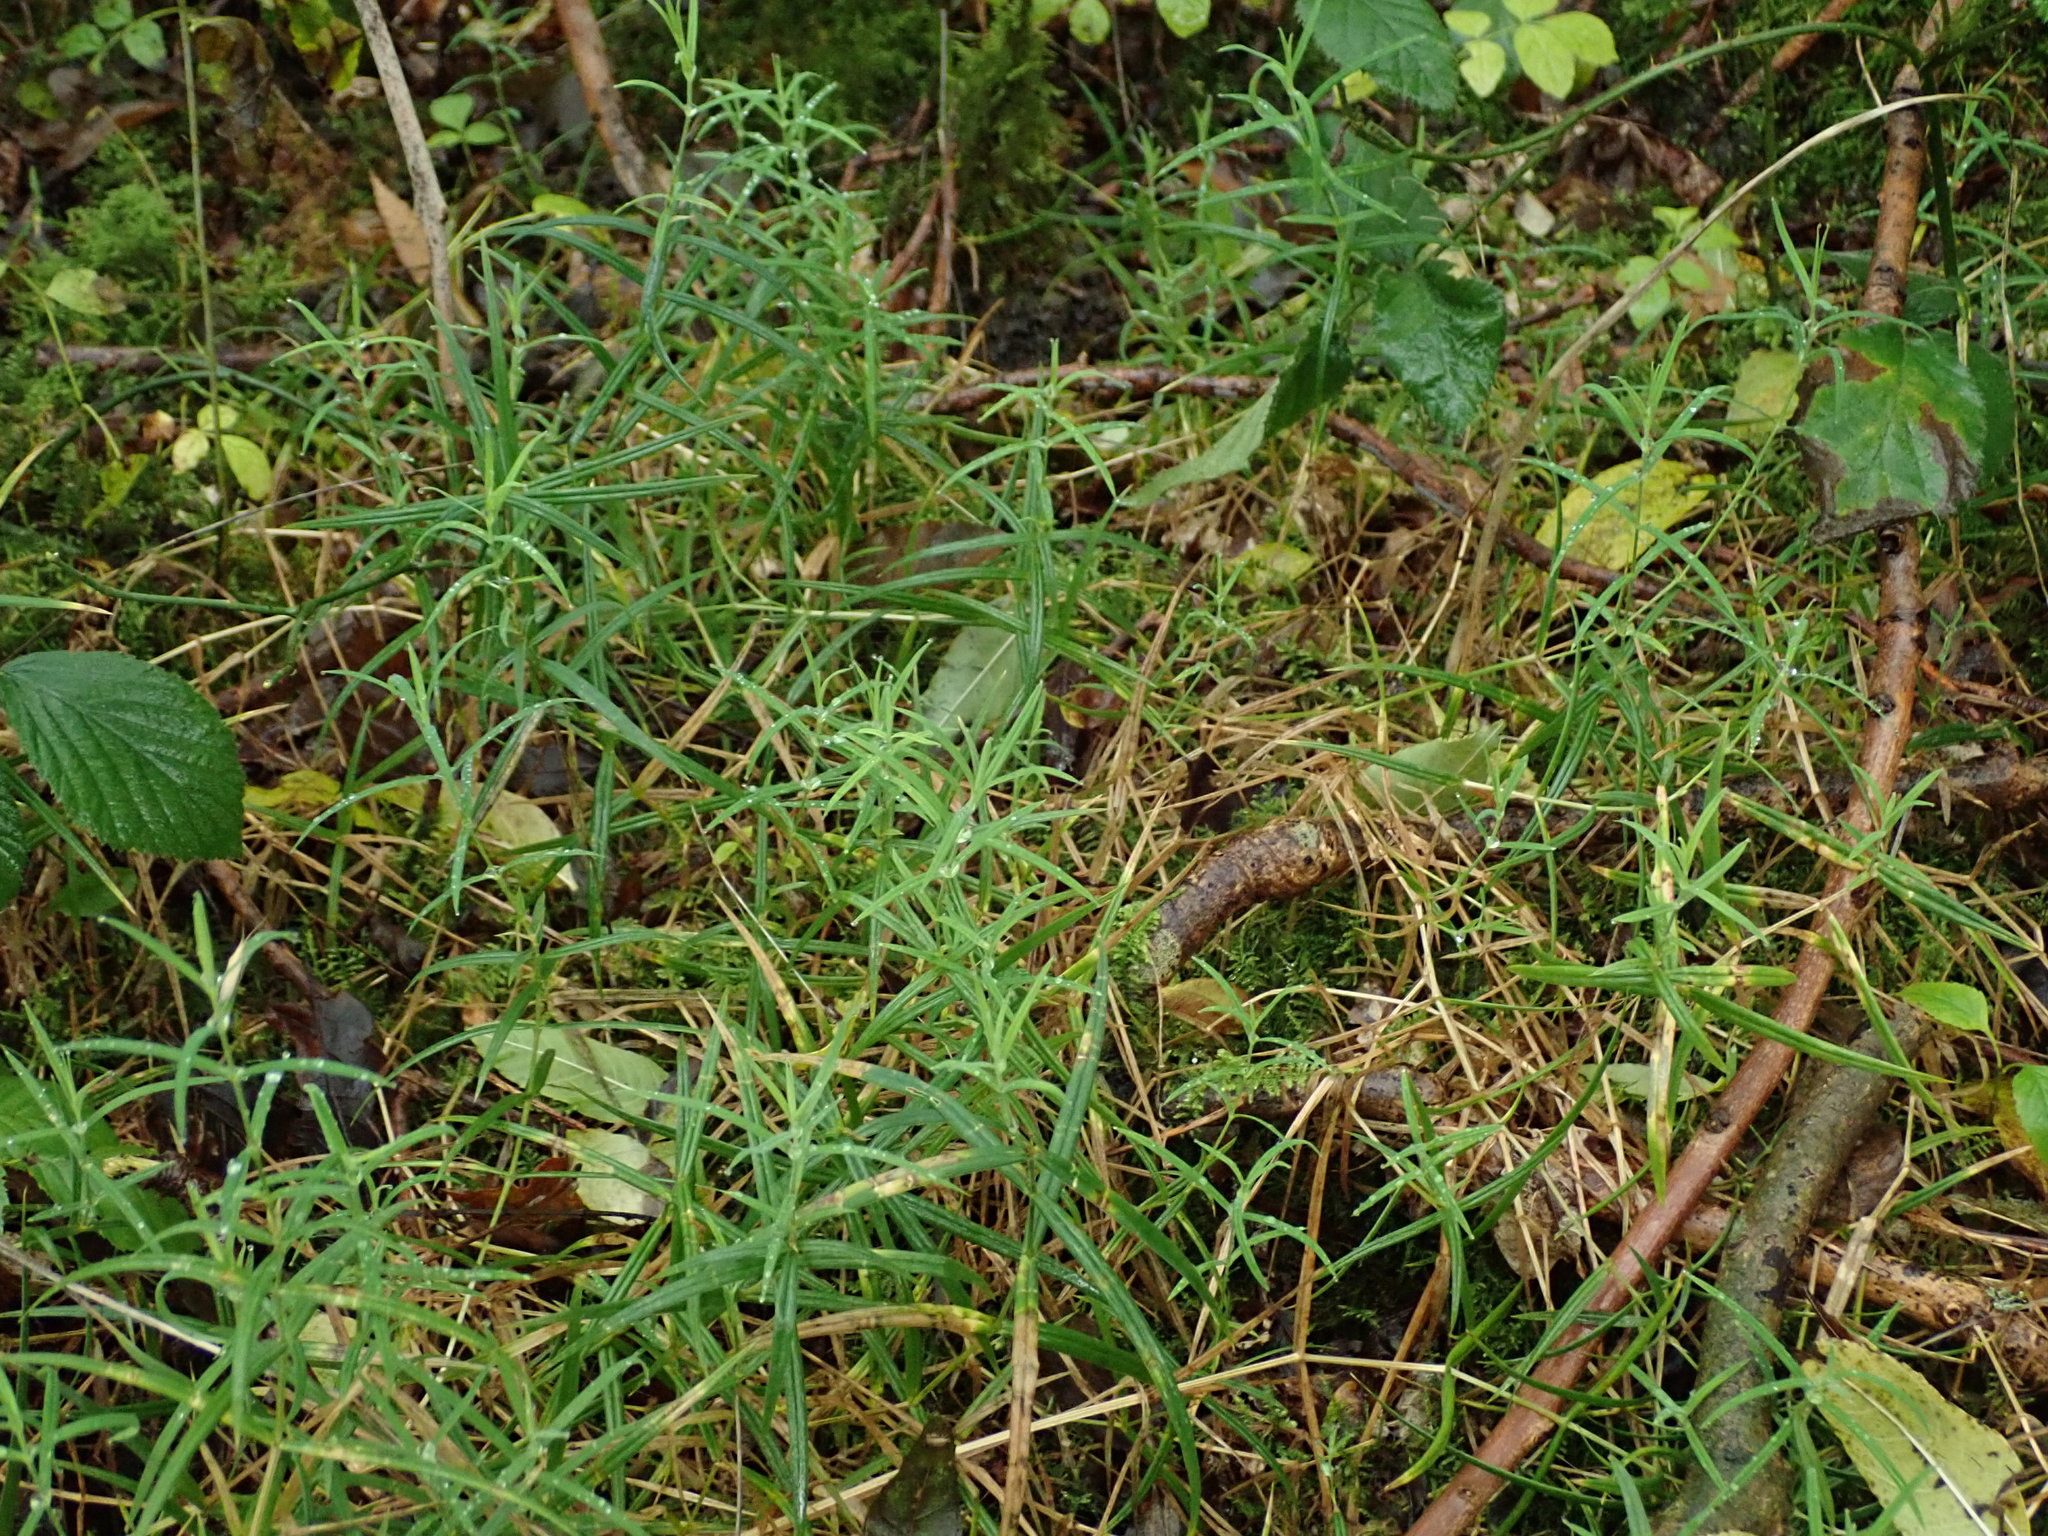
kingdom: Plantae
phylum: Tracheophyta
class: Magnoliopsida
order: Caryophyllales
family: Caryophyllaceae
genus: Rabelera
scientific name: Rabelera holostea
